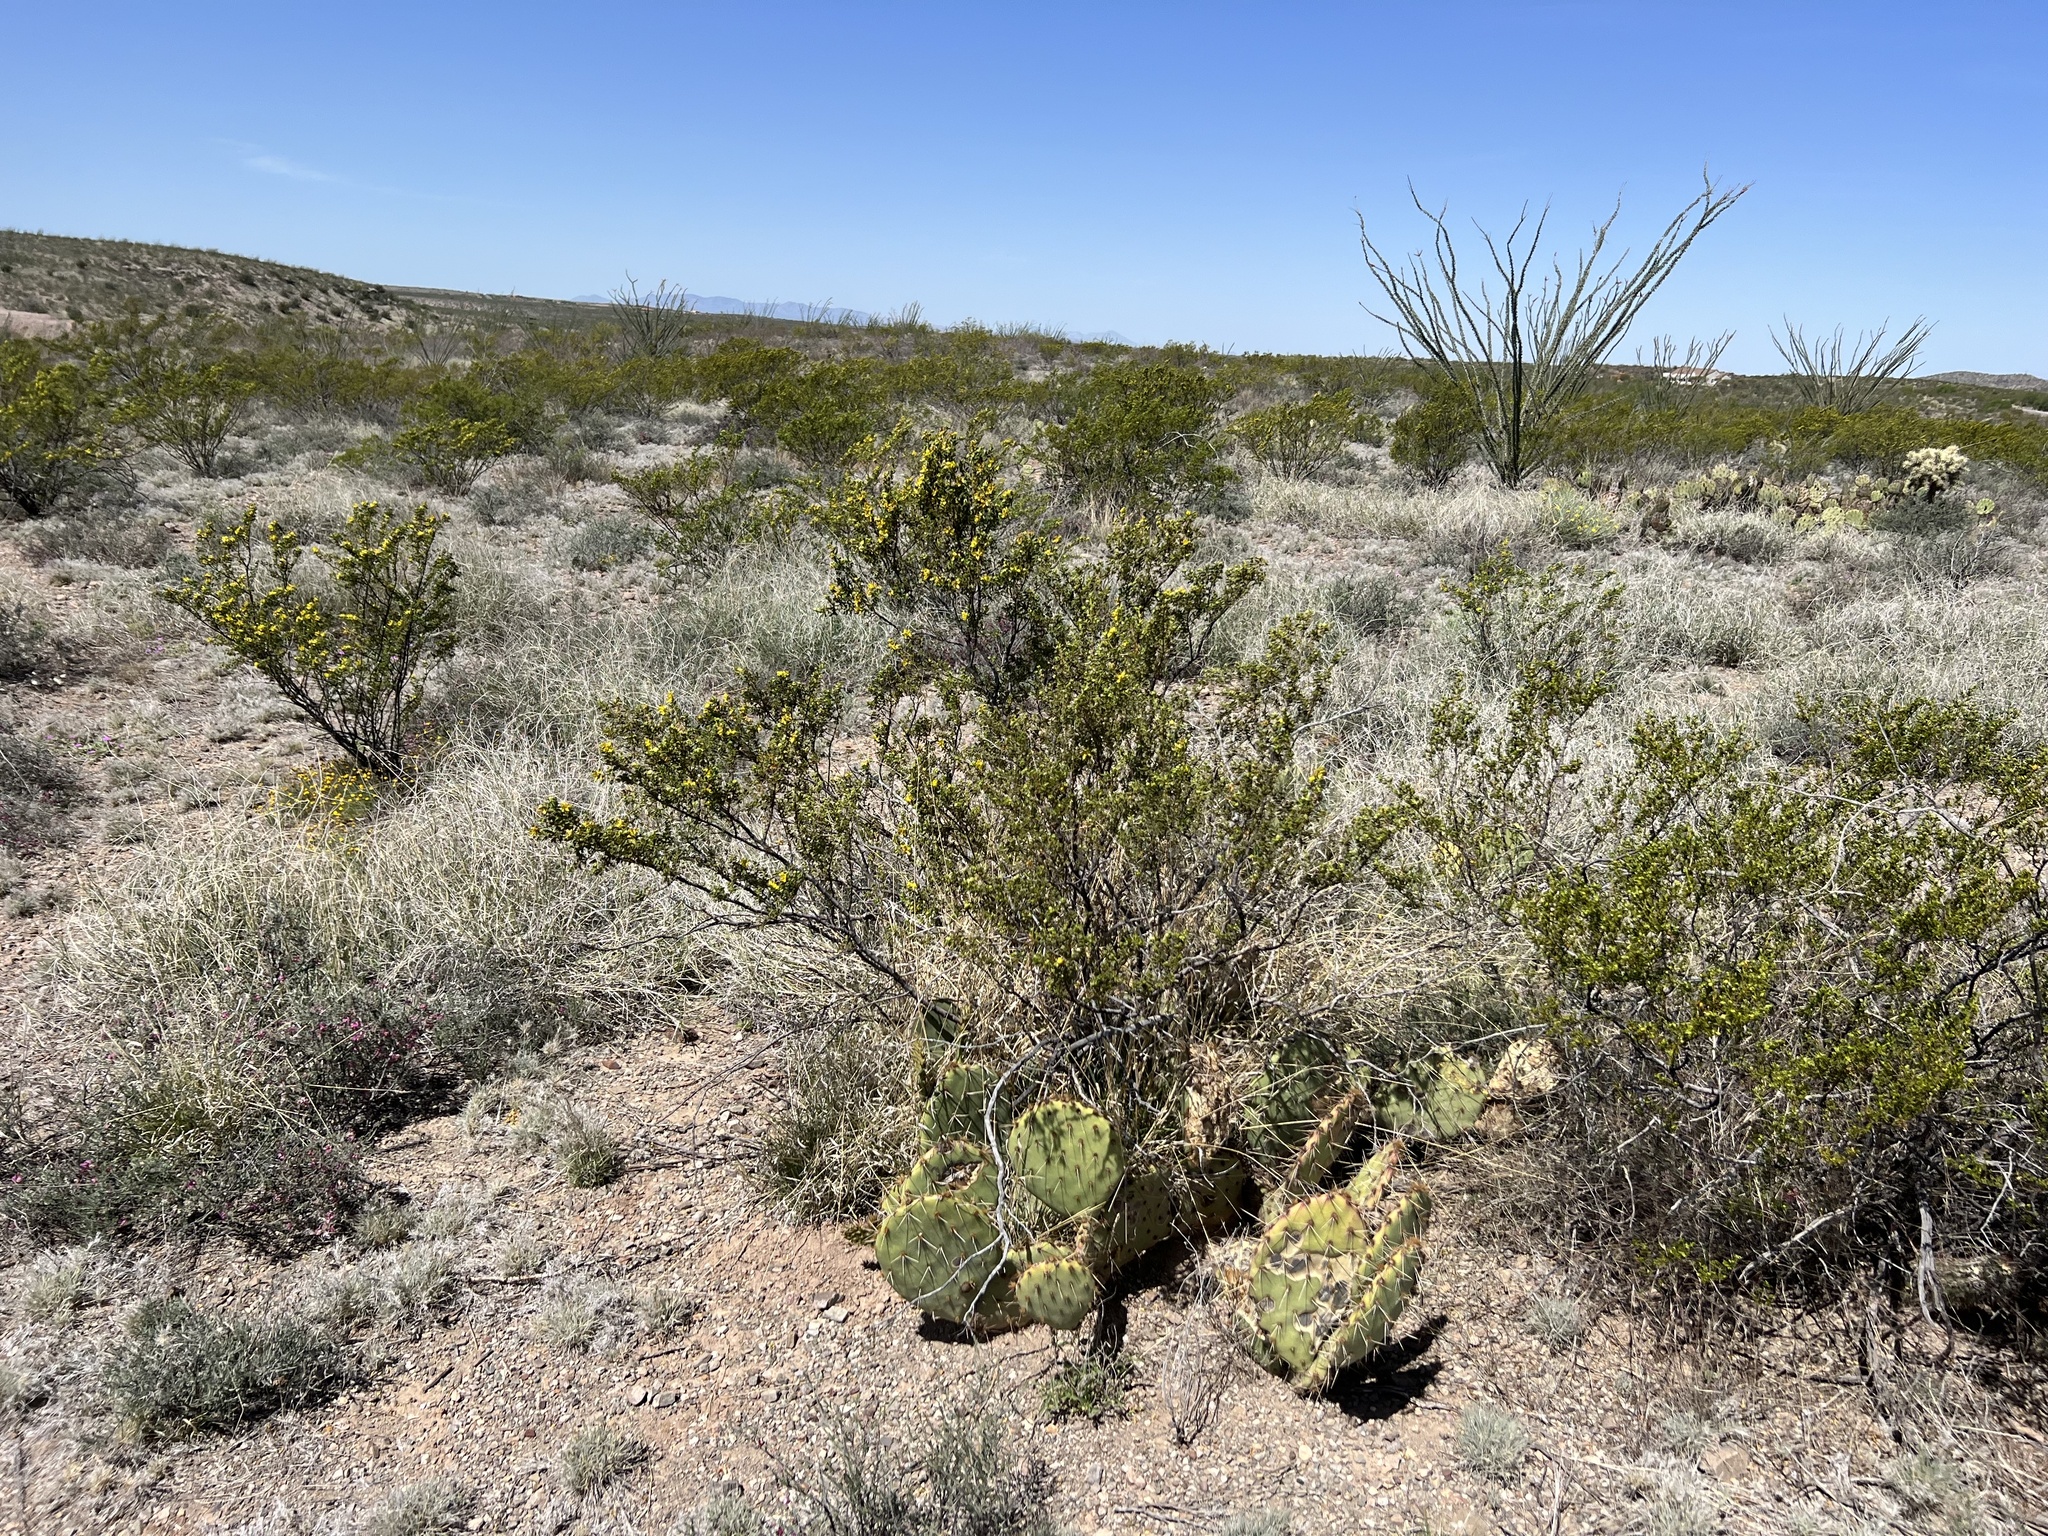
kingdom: Plantae
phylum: Tracheophyta
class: Magnoliopsida
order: Zygophyllales
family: Zygophyllaceae
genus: Larrea
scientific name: Larrea tridentata
